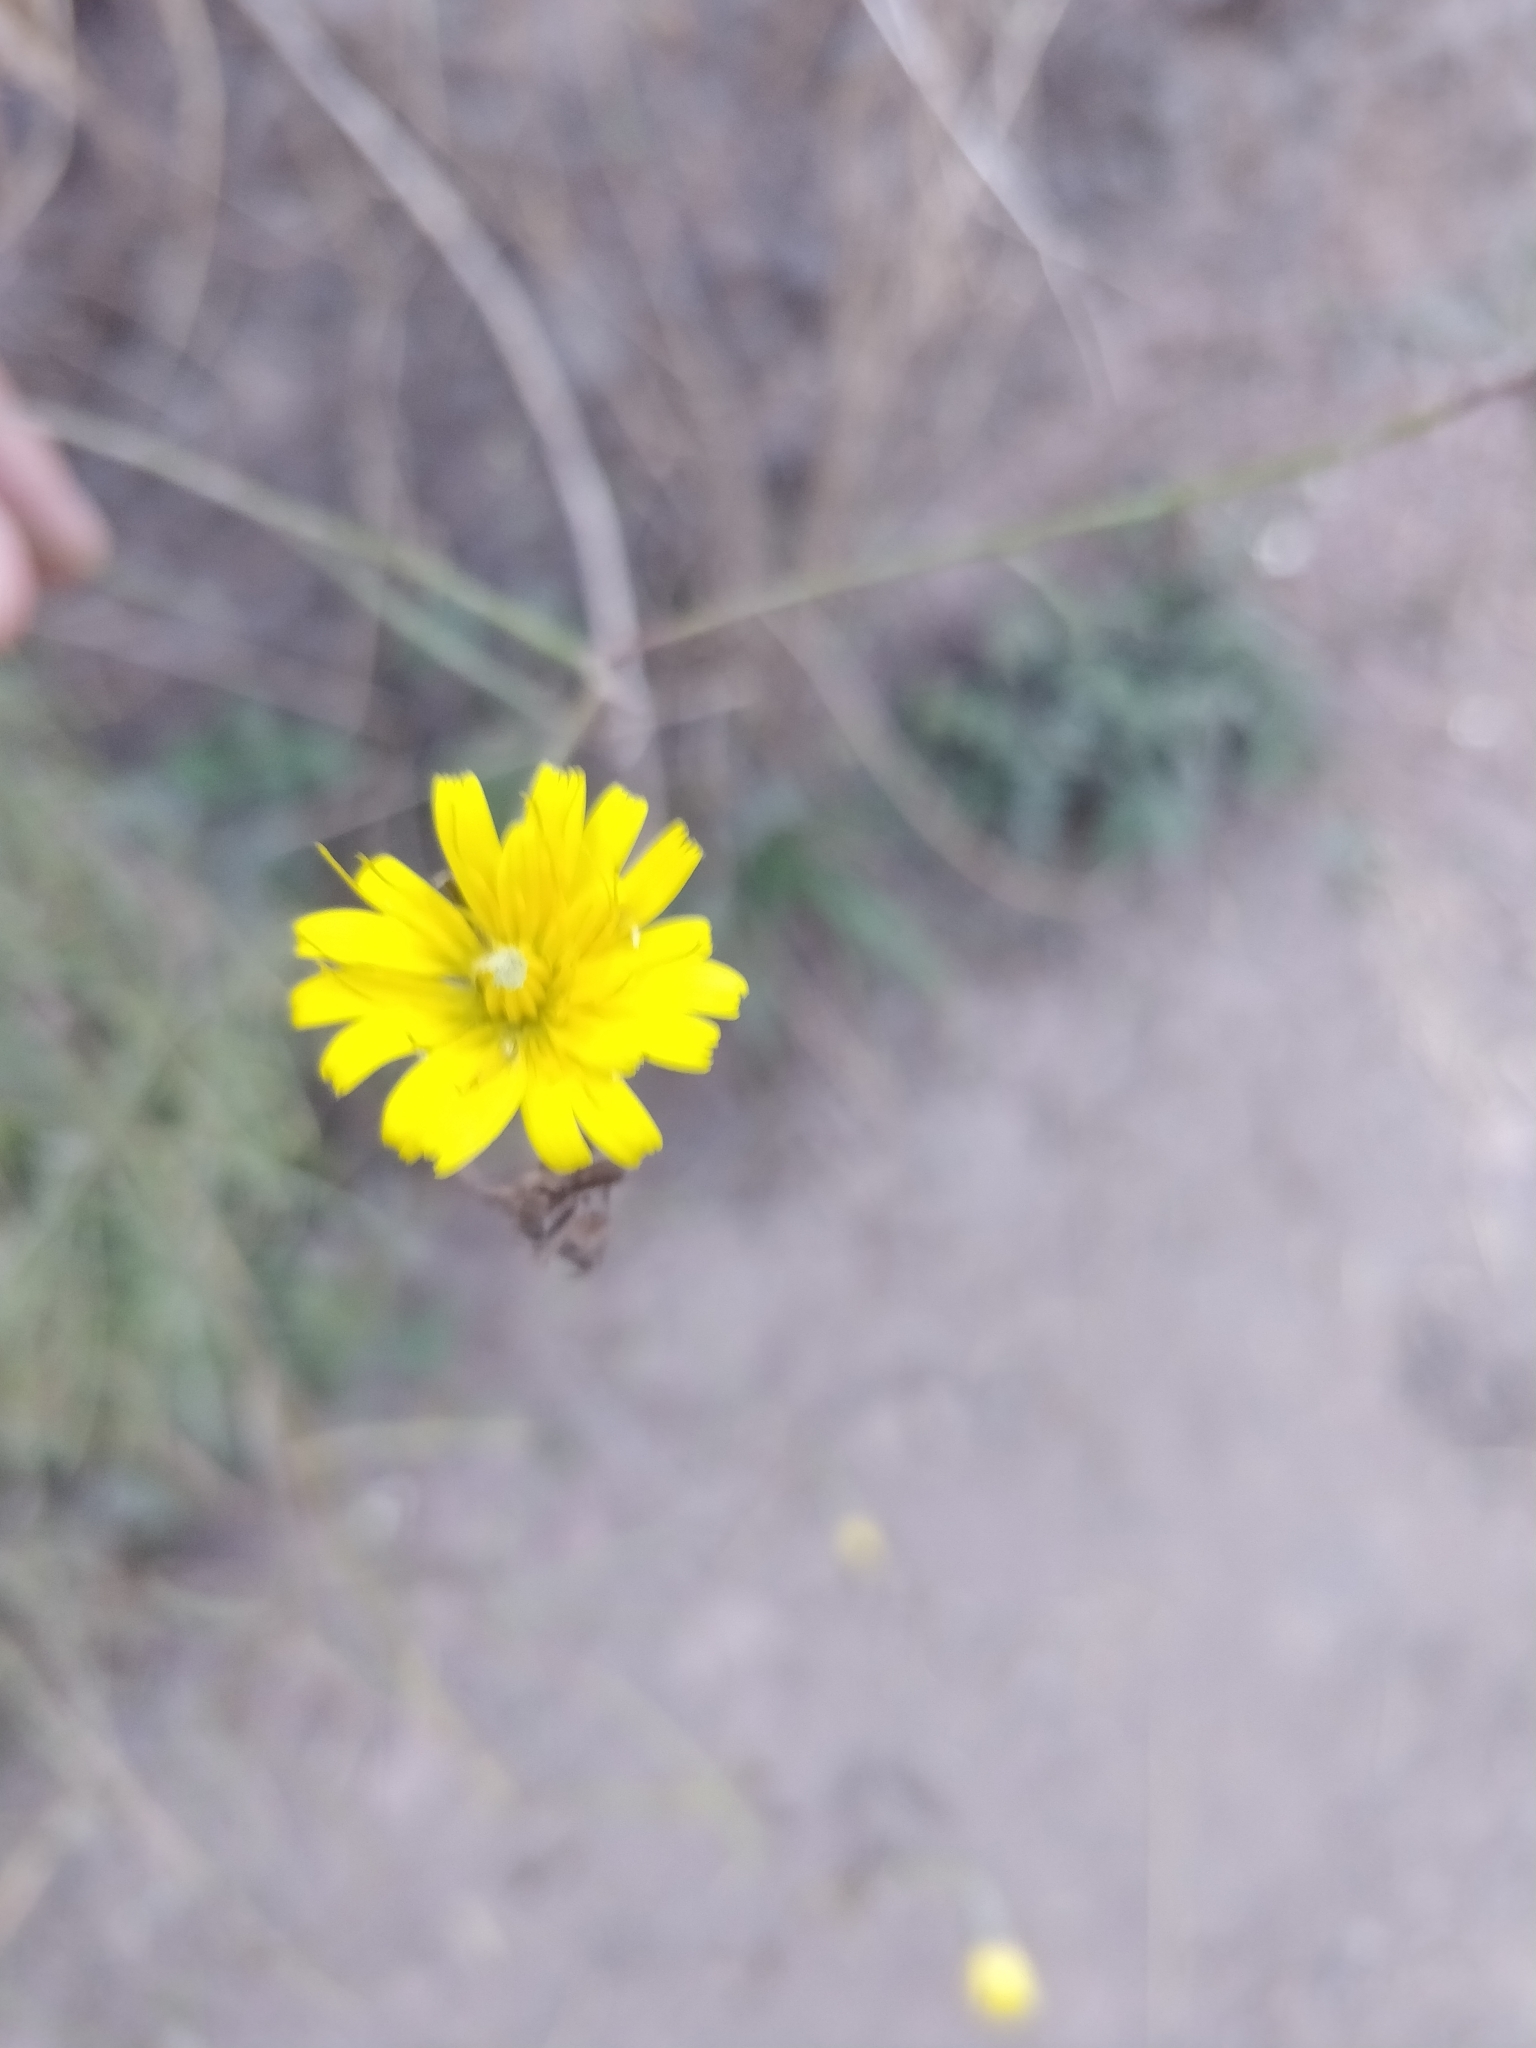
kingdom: Plantae
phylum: Tracheophyta
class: Magnoliopsida
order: Asterales
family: Asteraceae
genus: Tolpis
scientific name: Tolpis succulenta
